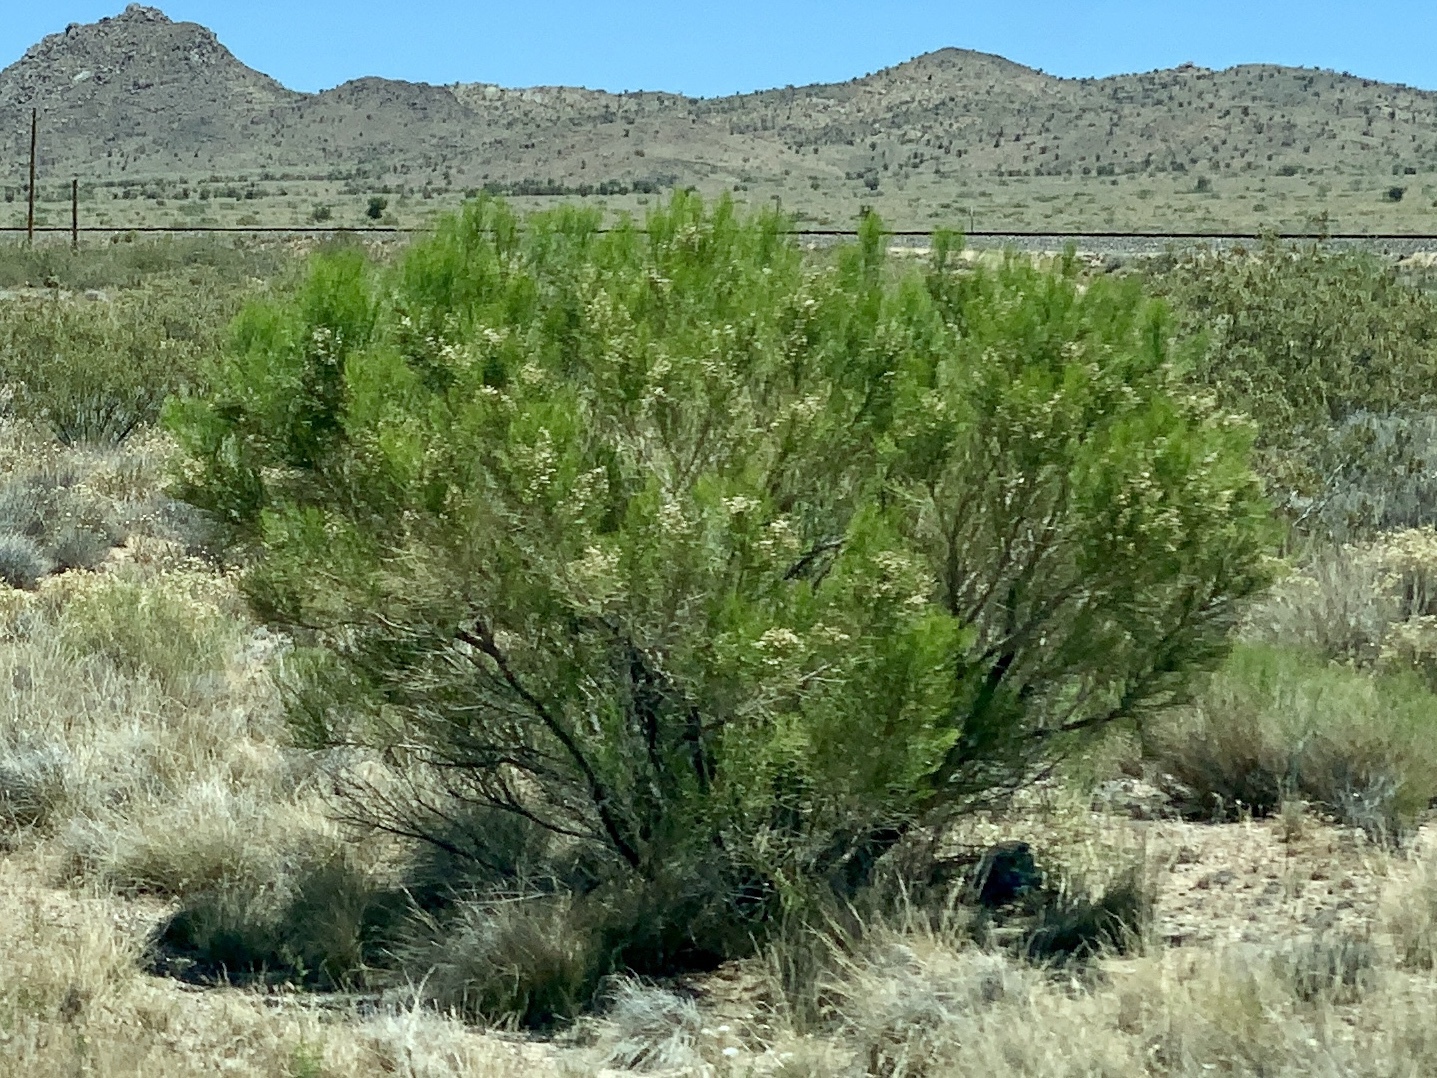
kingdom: Plantae
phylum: Tracheophyta
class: Magnoliopsida
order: Asterales
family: Asteraceae
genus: Baccharis
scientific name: Baccharis sarothroides
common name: Desert-broom
